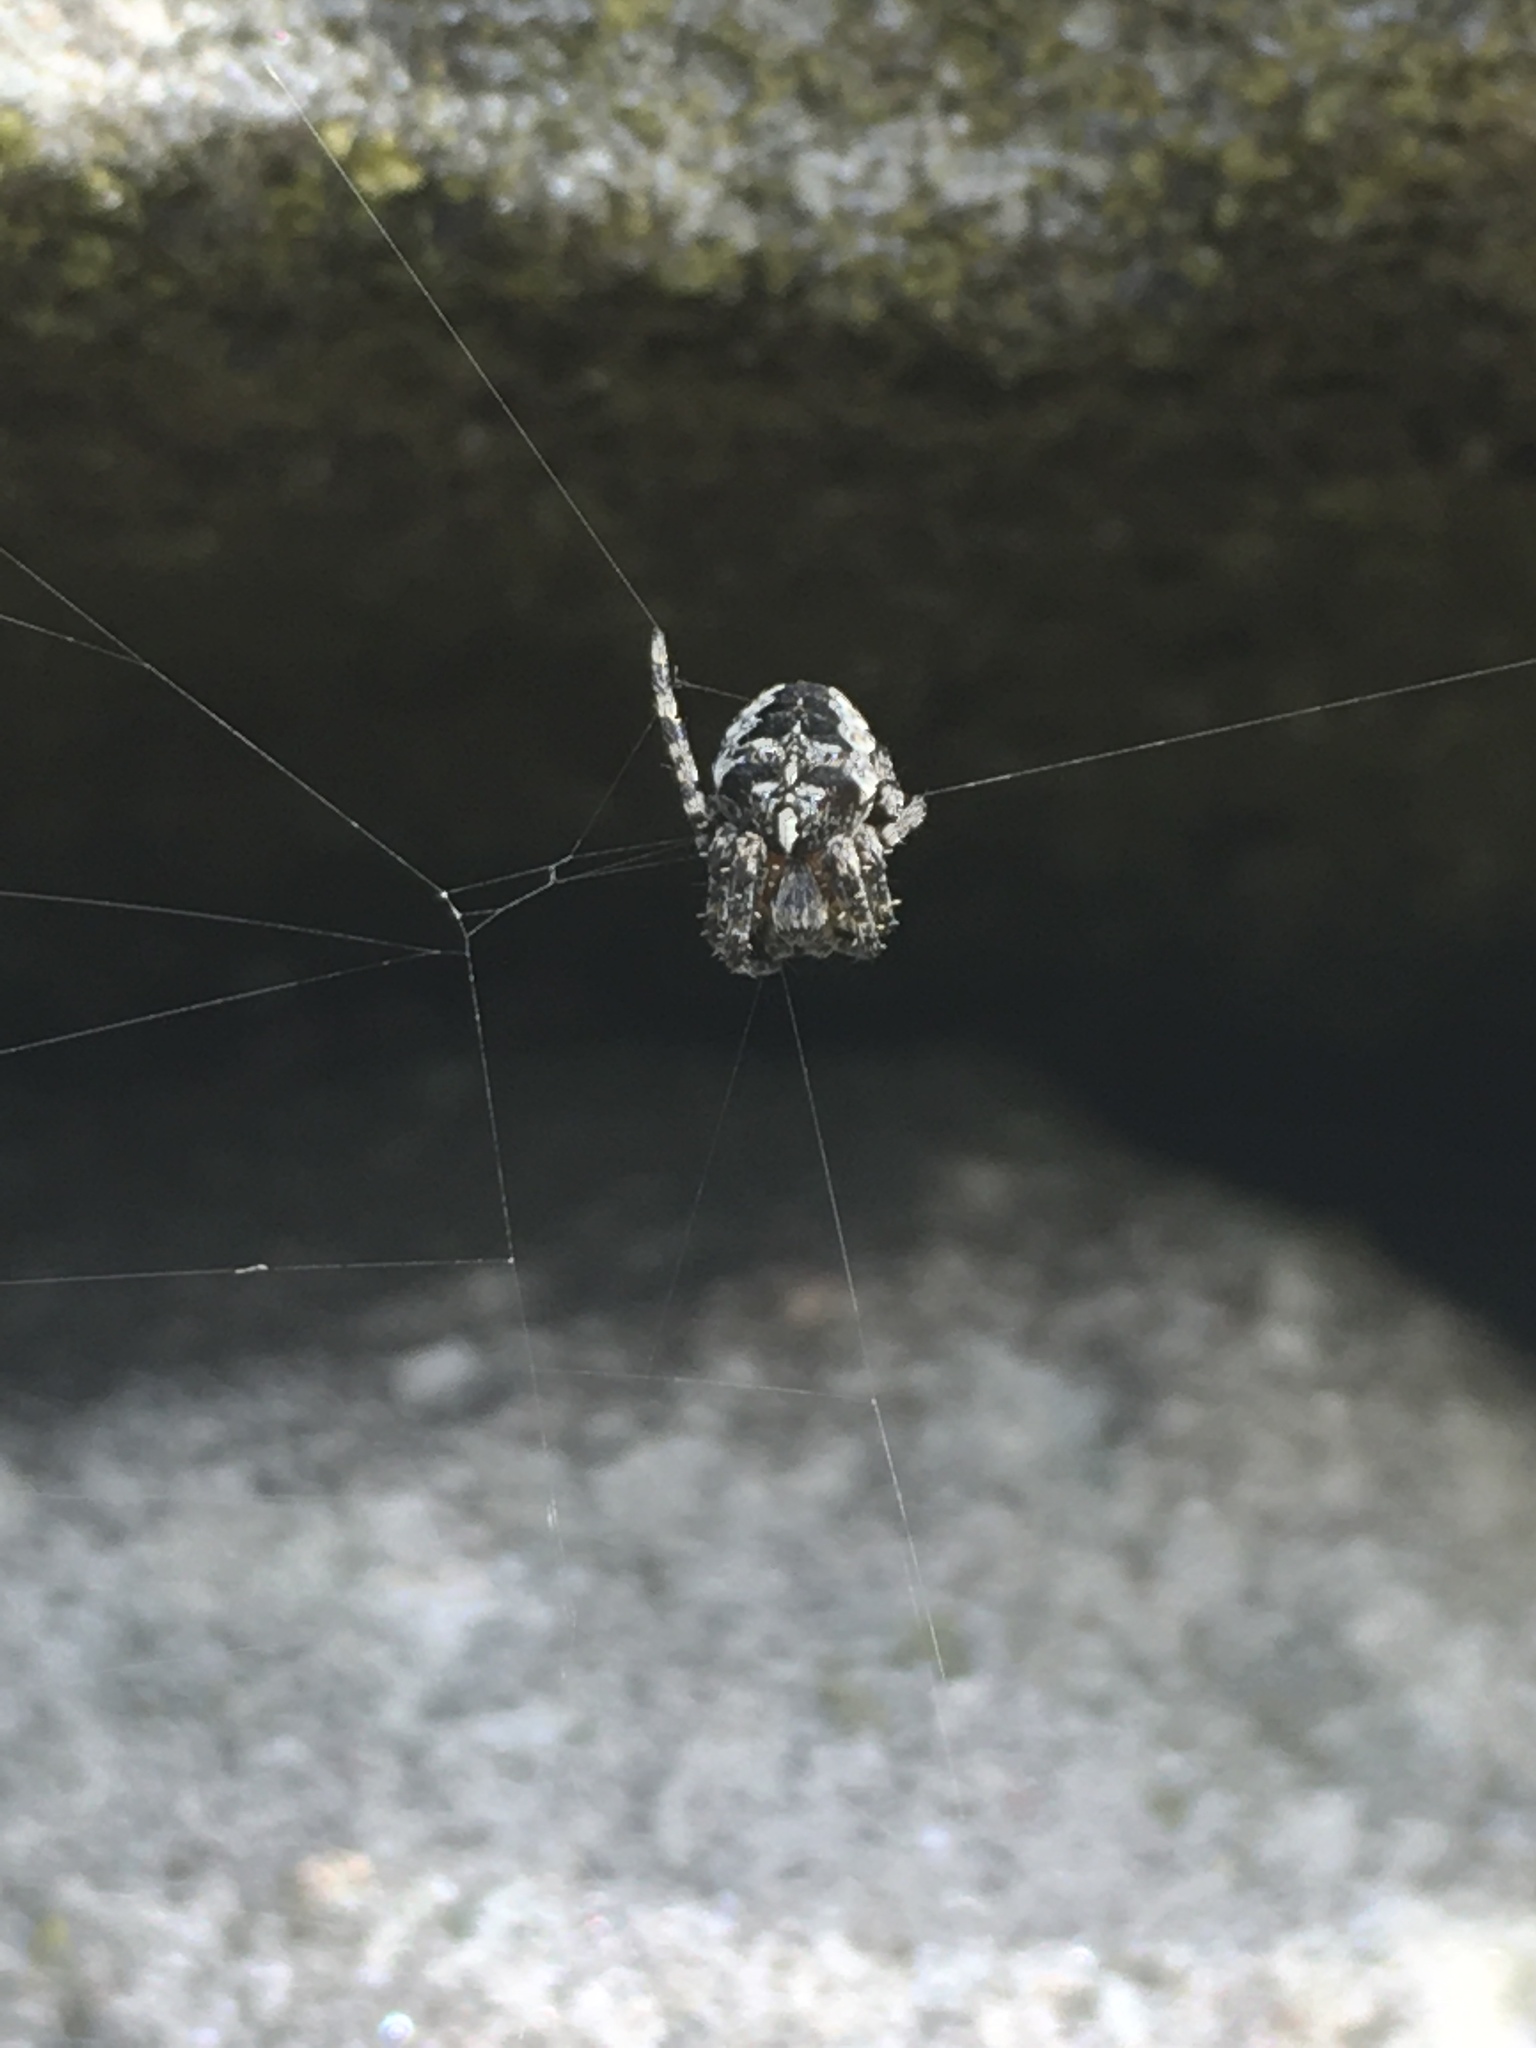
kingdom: Animalia
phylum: Arthropoda
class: Arachnida
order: Araneae
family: Araneidae
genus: Araneus
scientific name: Araneus diadematus
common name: Cross orbweaver
